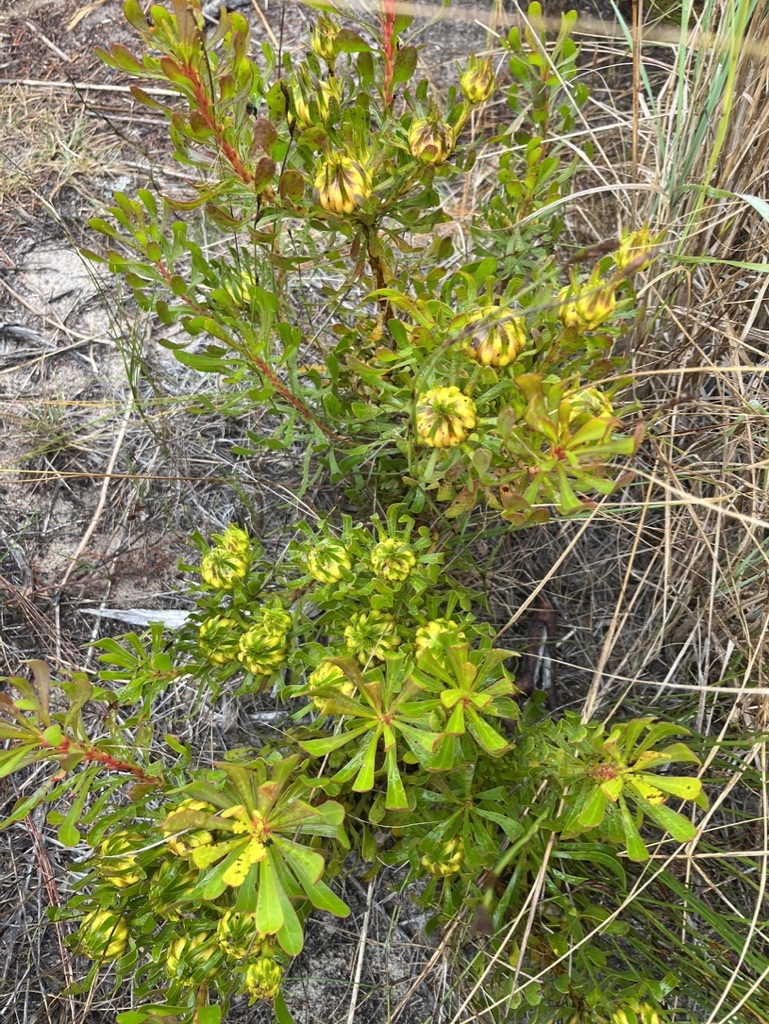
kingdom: Plantae
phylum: Tracheophyta
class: Magnoliopsida
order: Proteales
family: Proteaceae
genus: Aulax
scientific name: Aulax umbellata
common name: Broad-leaf featherbush
